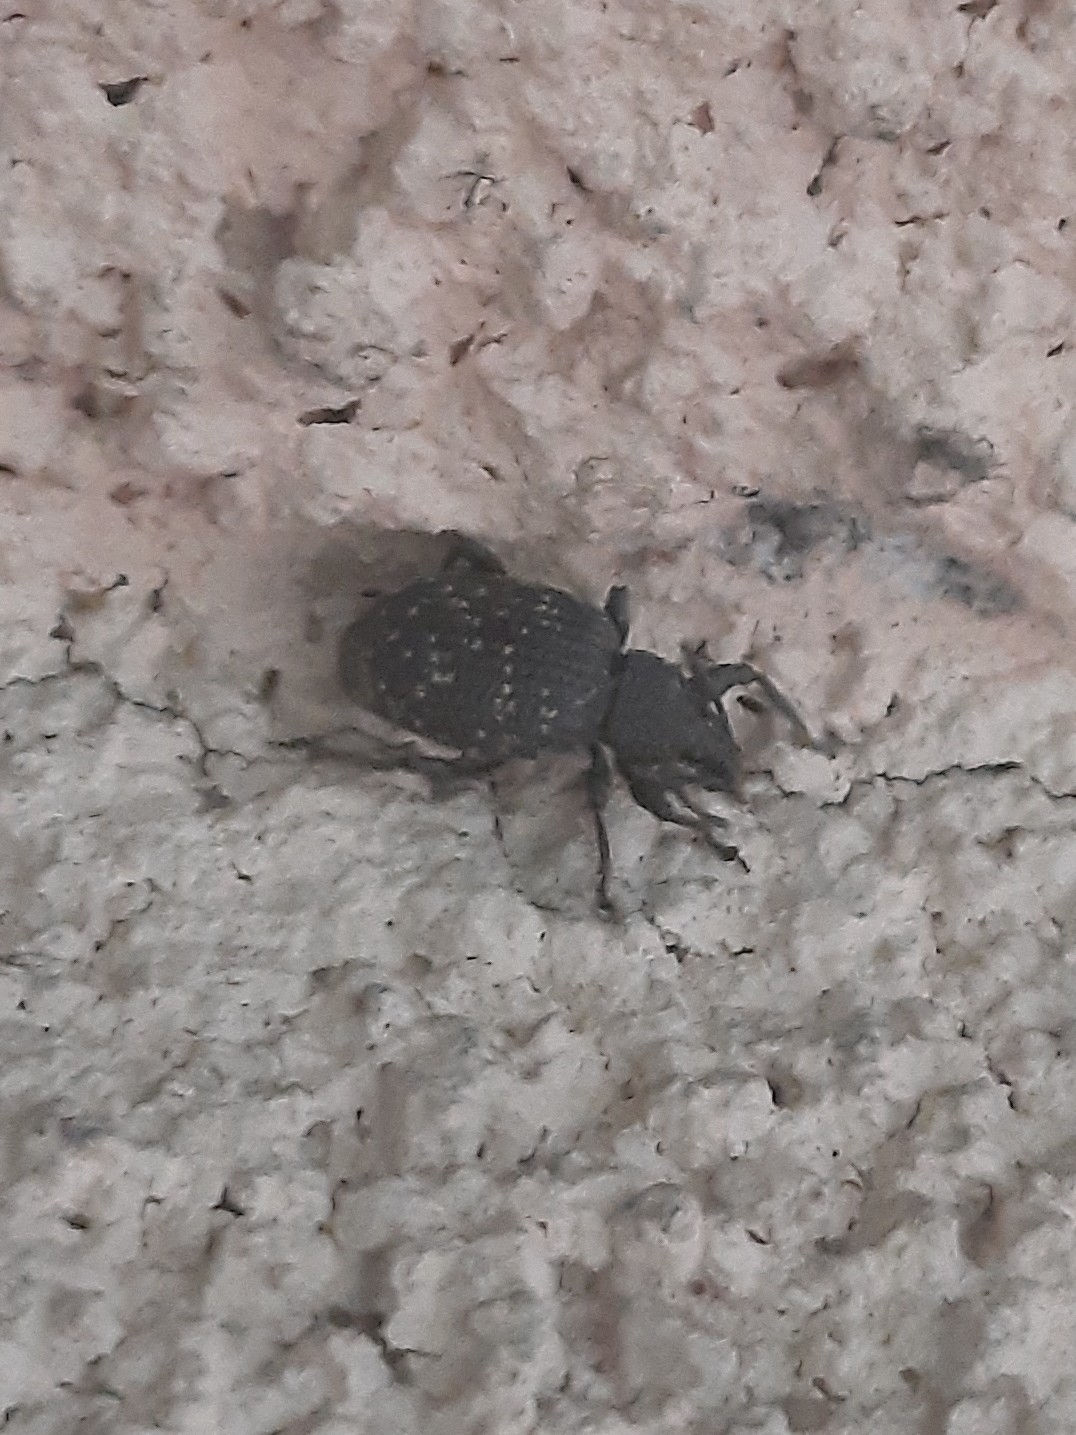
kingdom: Animalia
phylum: Arthropoda
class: Insecta
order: Coleoptera
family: Curculionidae
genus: Otiorhynchus
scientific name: Otiorhynchus sulcatus
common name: Black vine weevil
